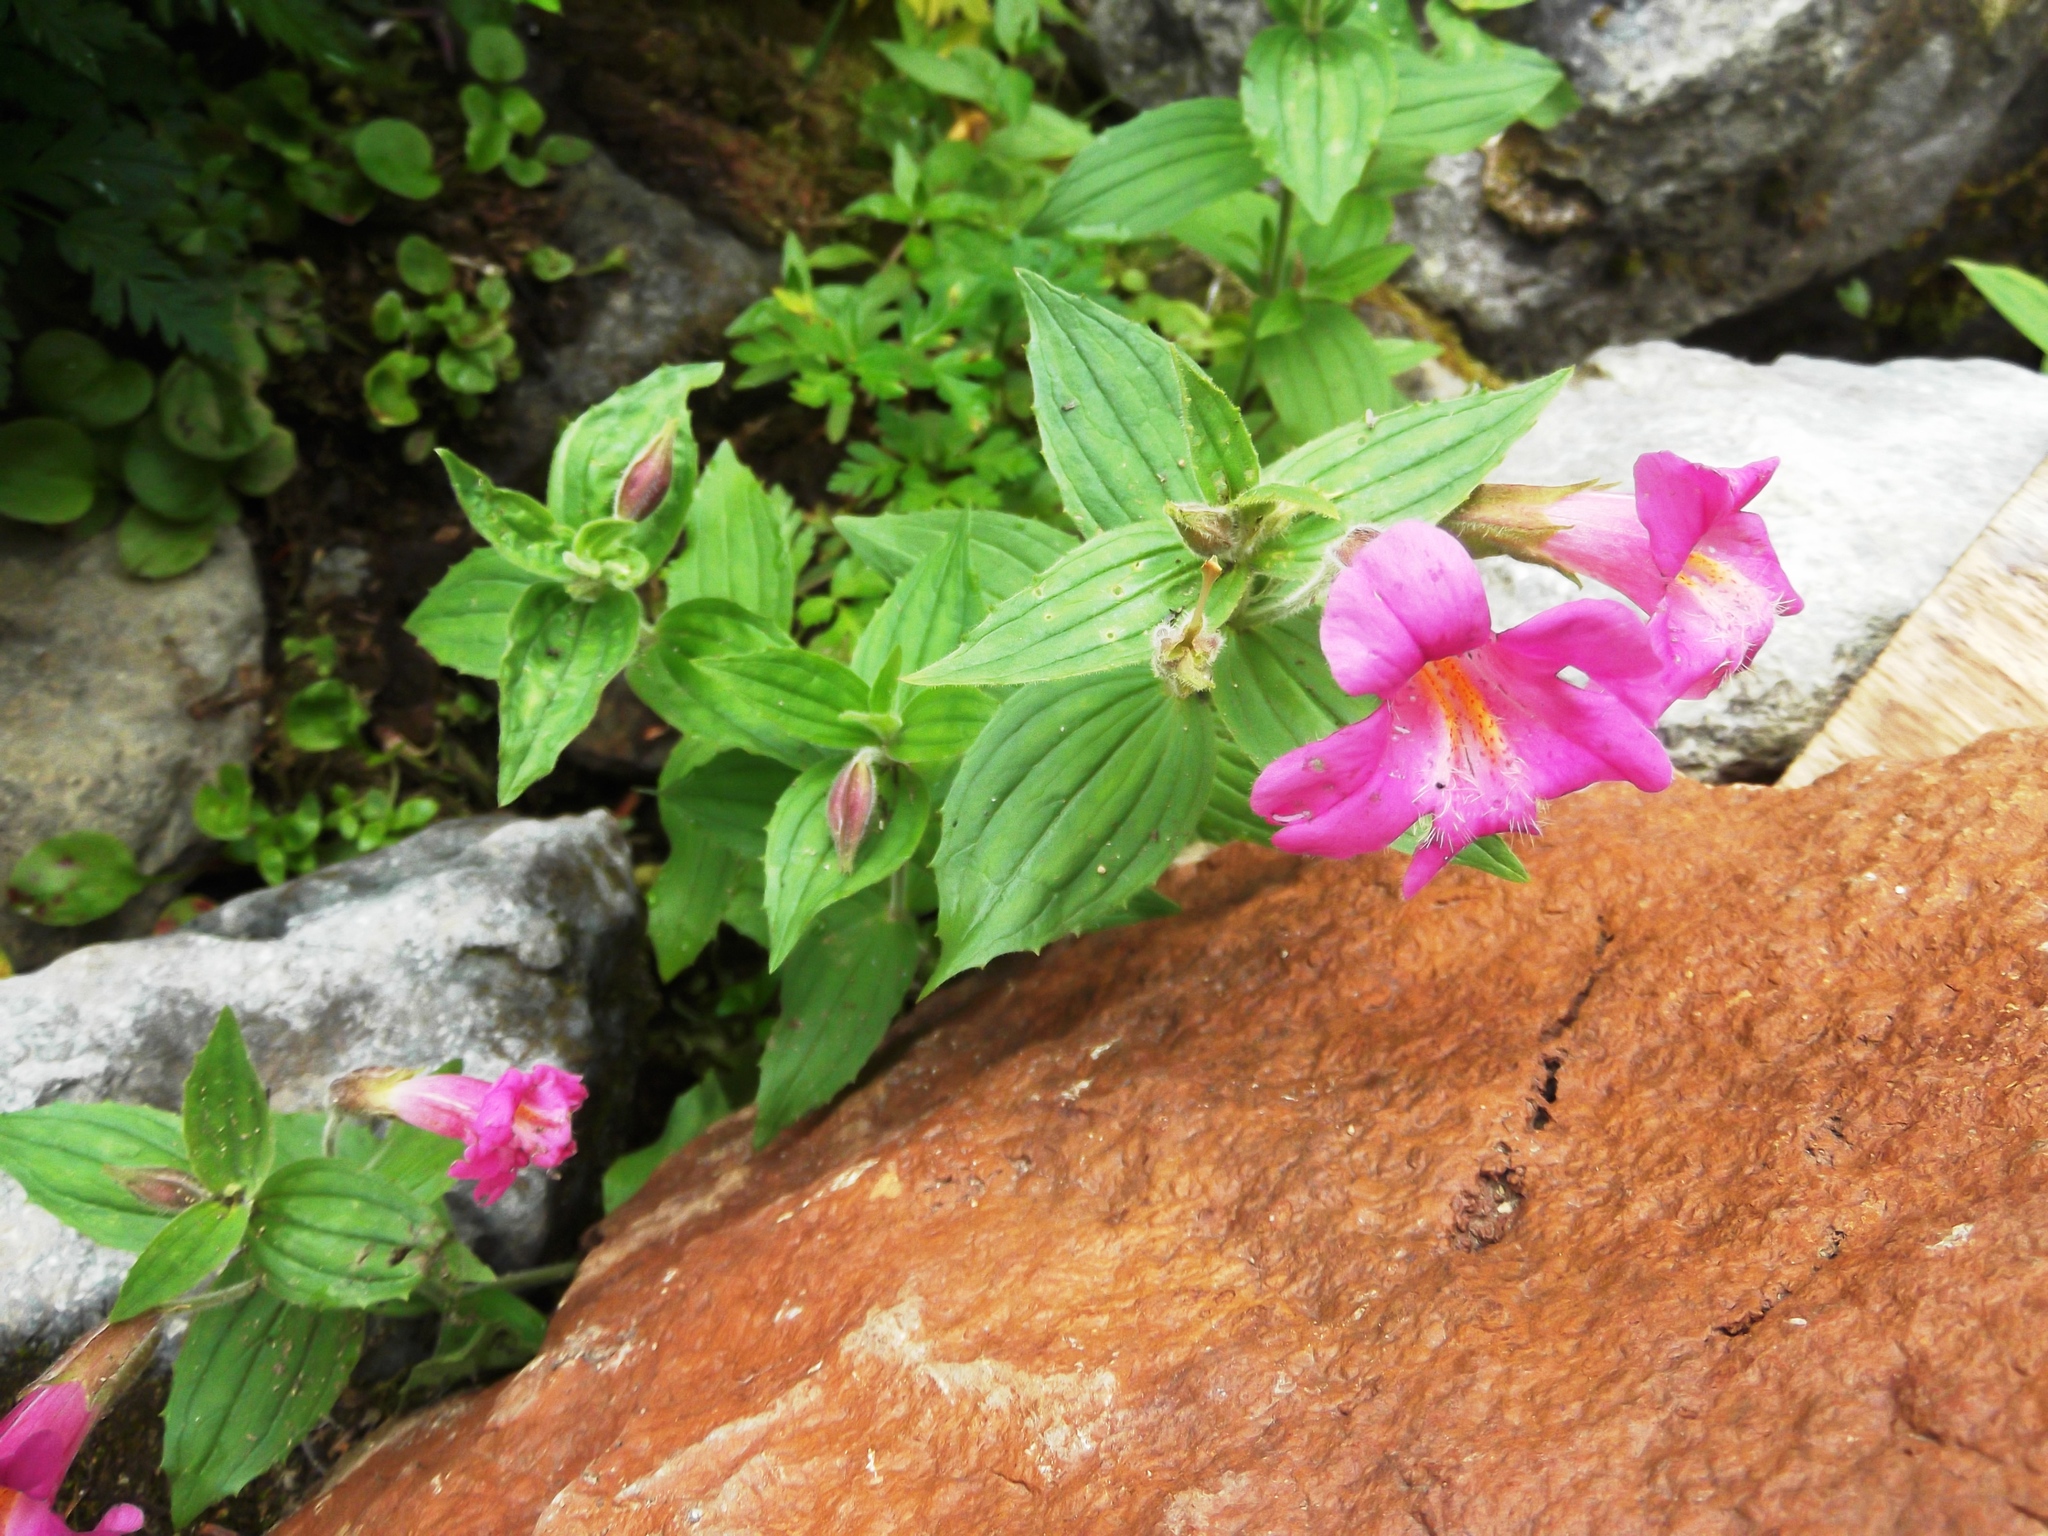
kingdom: Plantae
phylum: Tracheophyta
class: Magnoliopsida
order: Lamiales
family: Phrymaceae
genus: Erythranthe
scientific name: Erythranthe lewisii
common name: Lewis's monkey-flower
